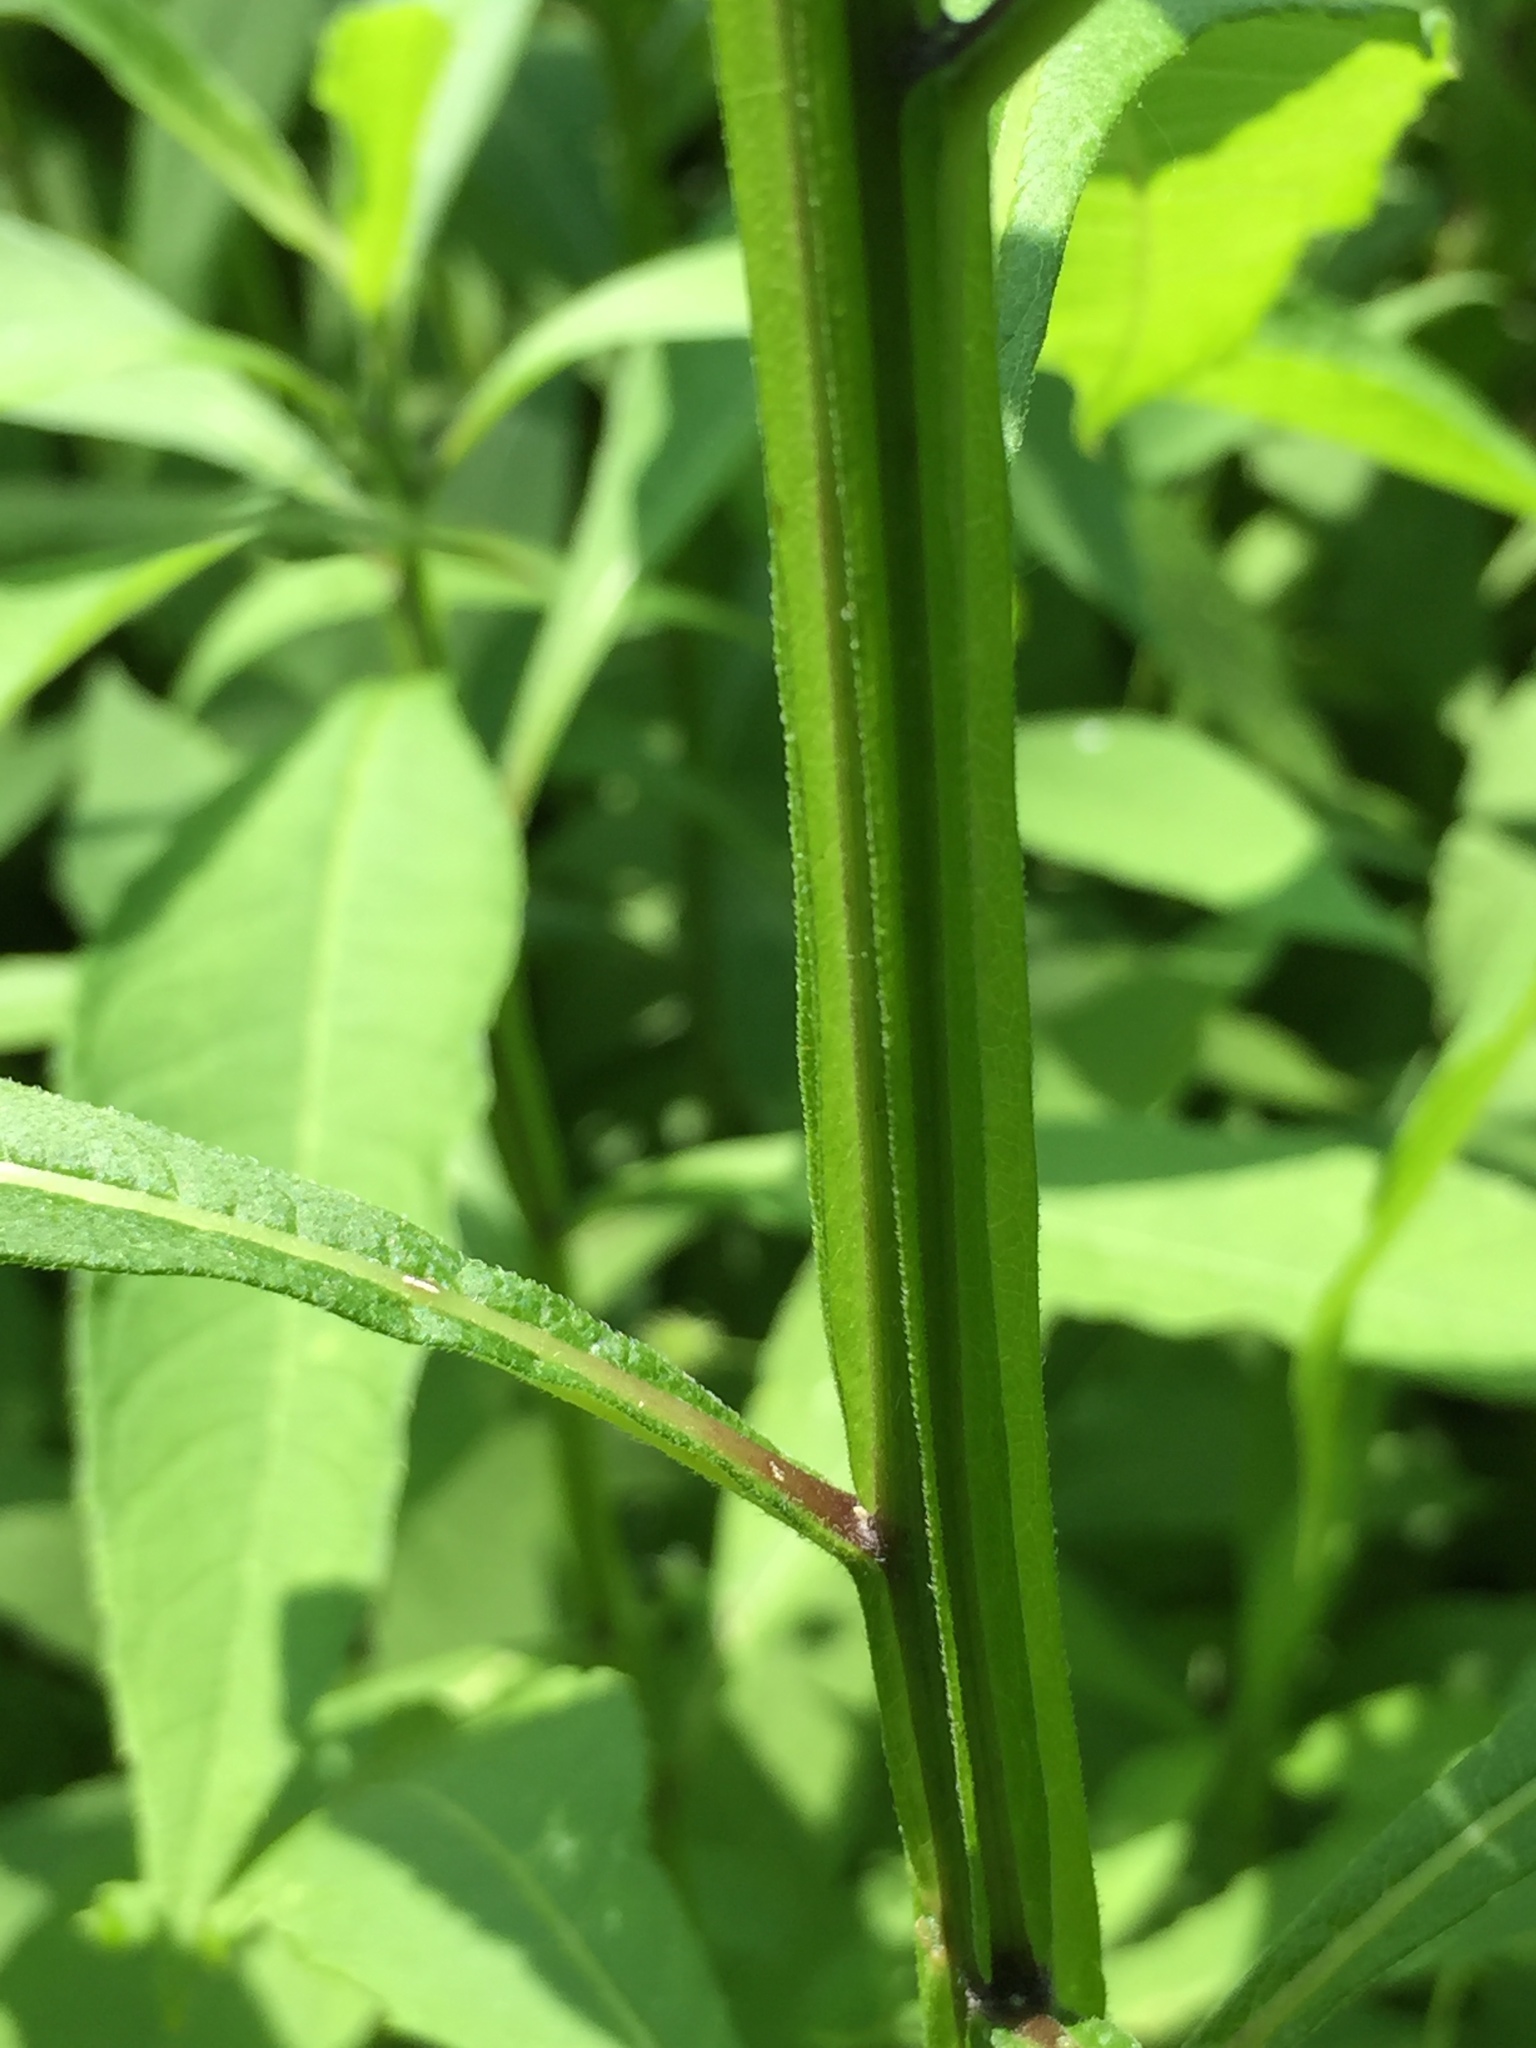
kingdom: Plantae
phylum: Tracheophyta
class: Magnoliopsida
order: Asterales
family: Asteraceae
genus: Verbesina
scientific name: Verbesina alternifolia
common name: Wingstem
